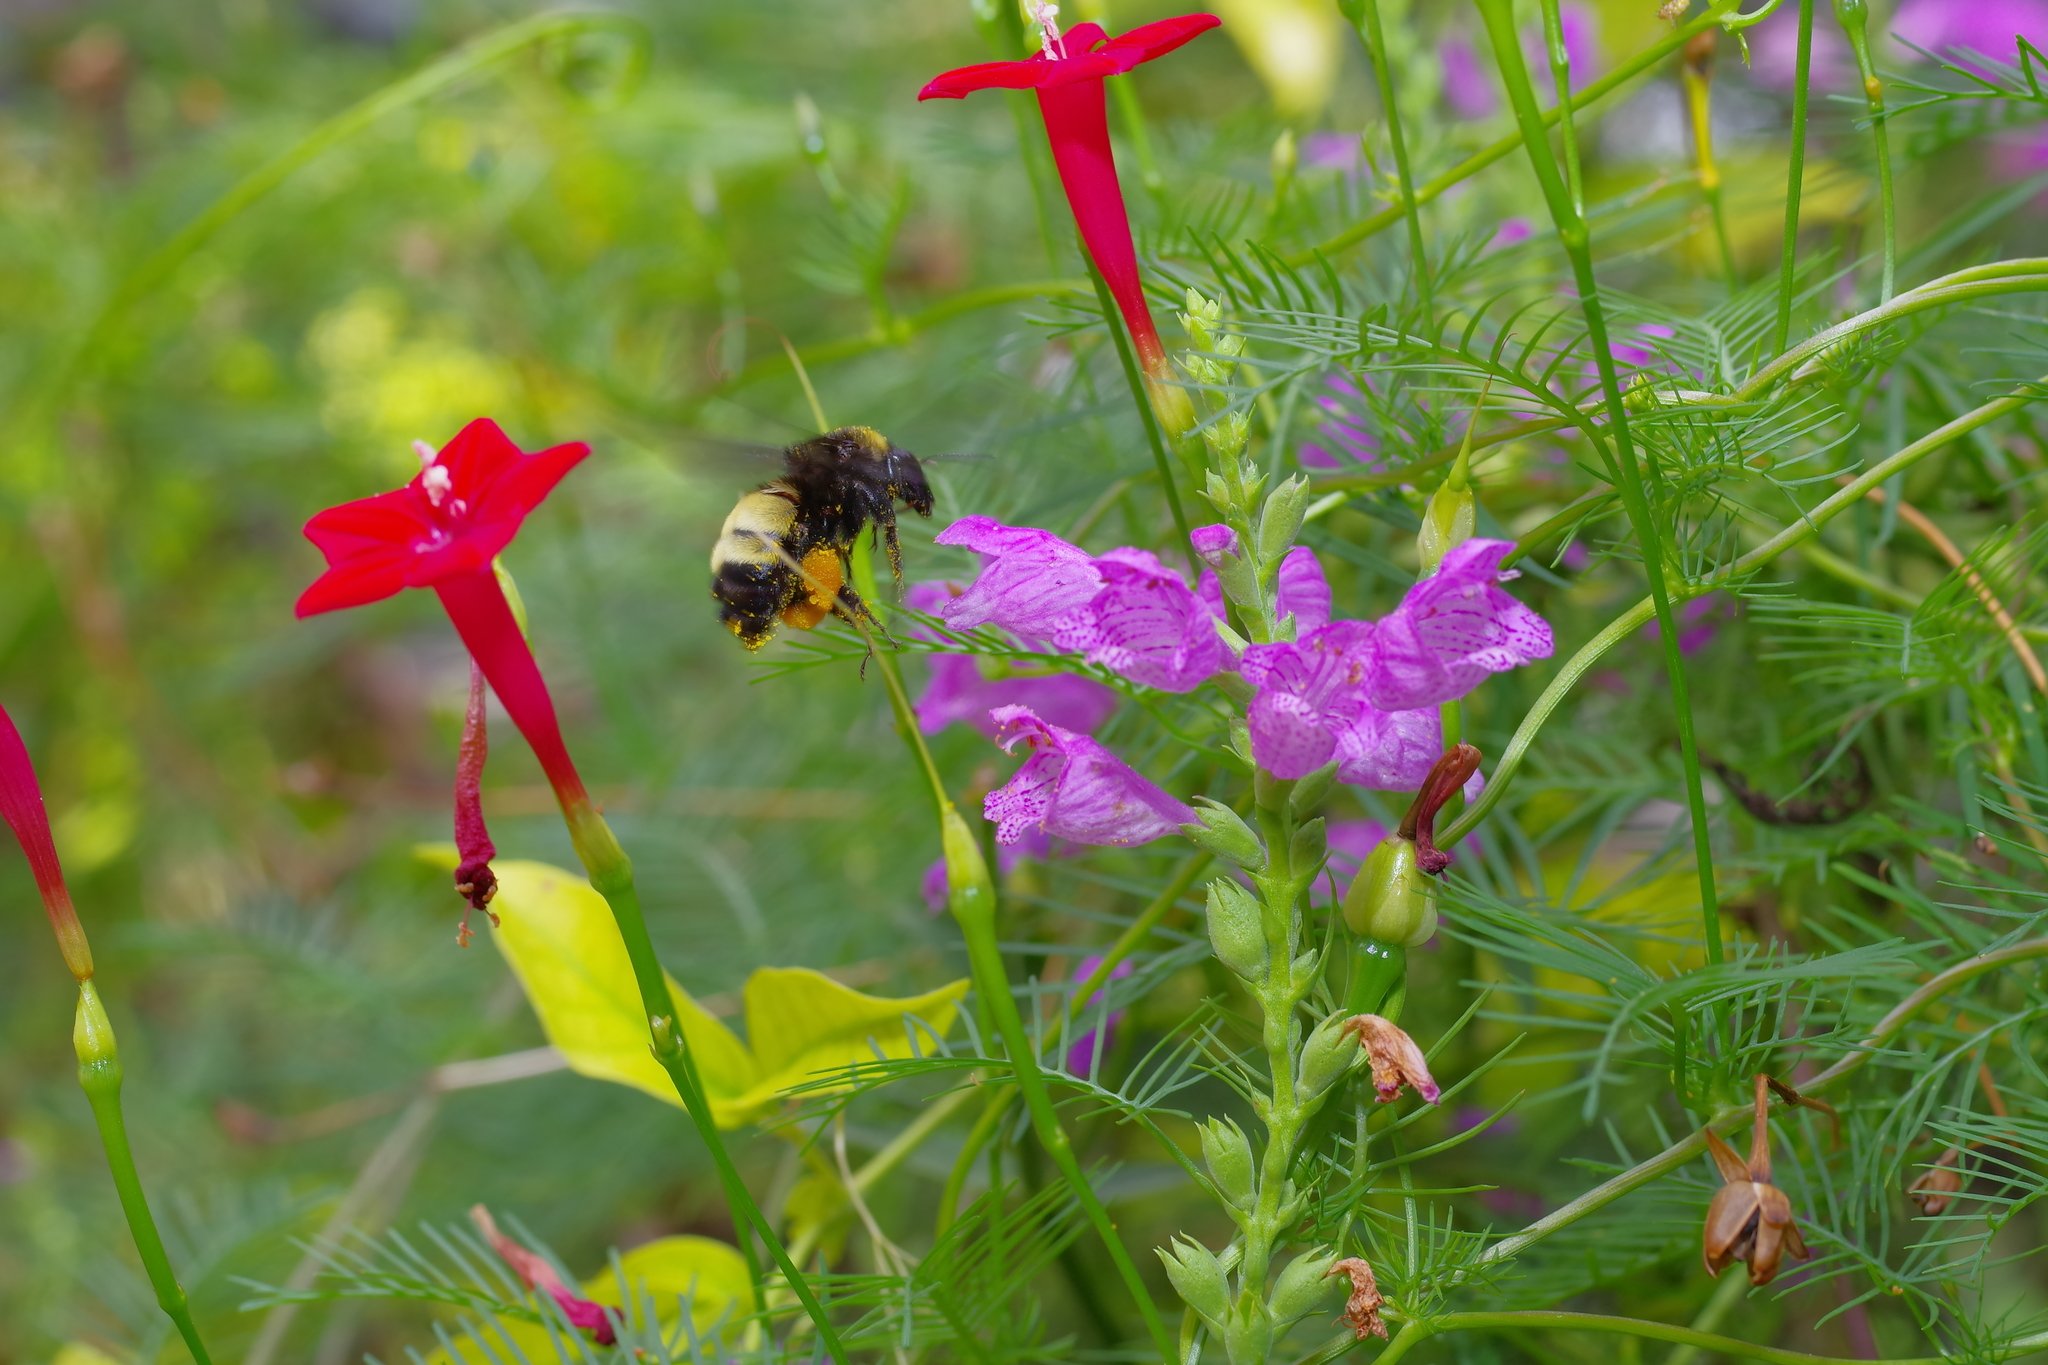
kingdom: Animalia
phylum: Arthropoda
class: Insecta
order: Hymenoptera
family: Apidae
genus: Bombus
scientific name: Bombus pensylvanicus
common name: Bumble bee
